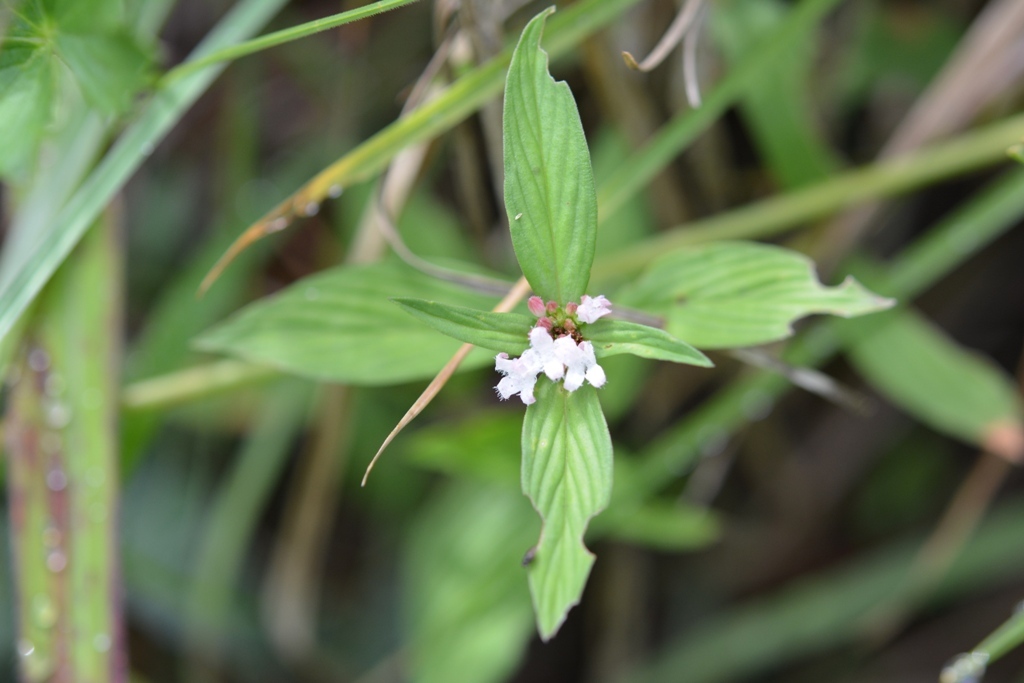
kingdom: Plantae
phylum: Tracheophyta
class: Magnoliopsida
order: Gentianales
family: Rubiaceae
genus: Spermacoce
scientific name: Spermacoce remota
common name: Woodland false buttonweed
